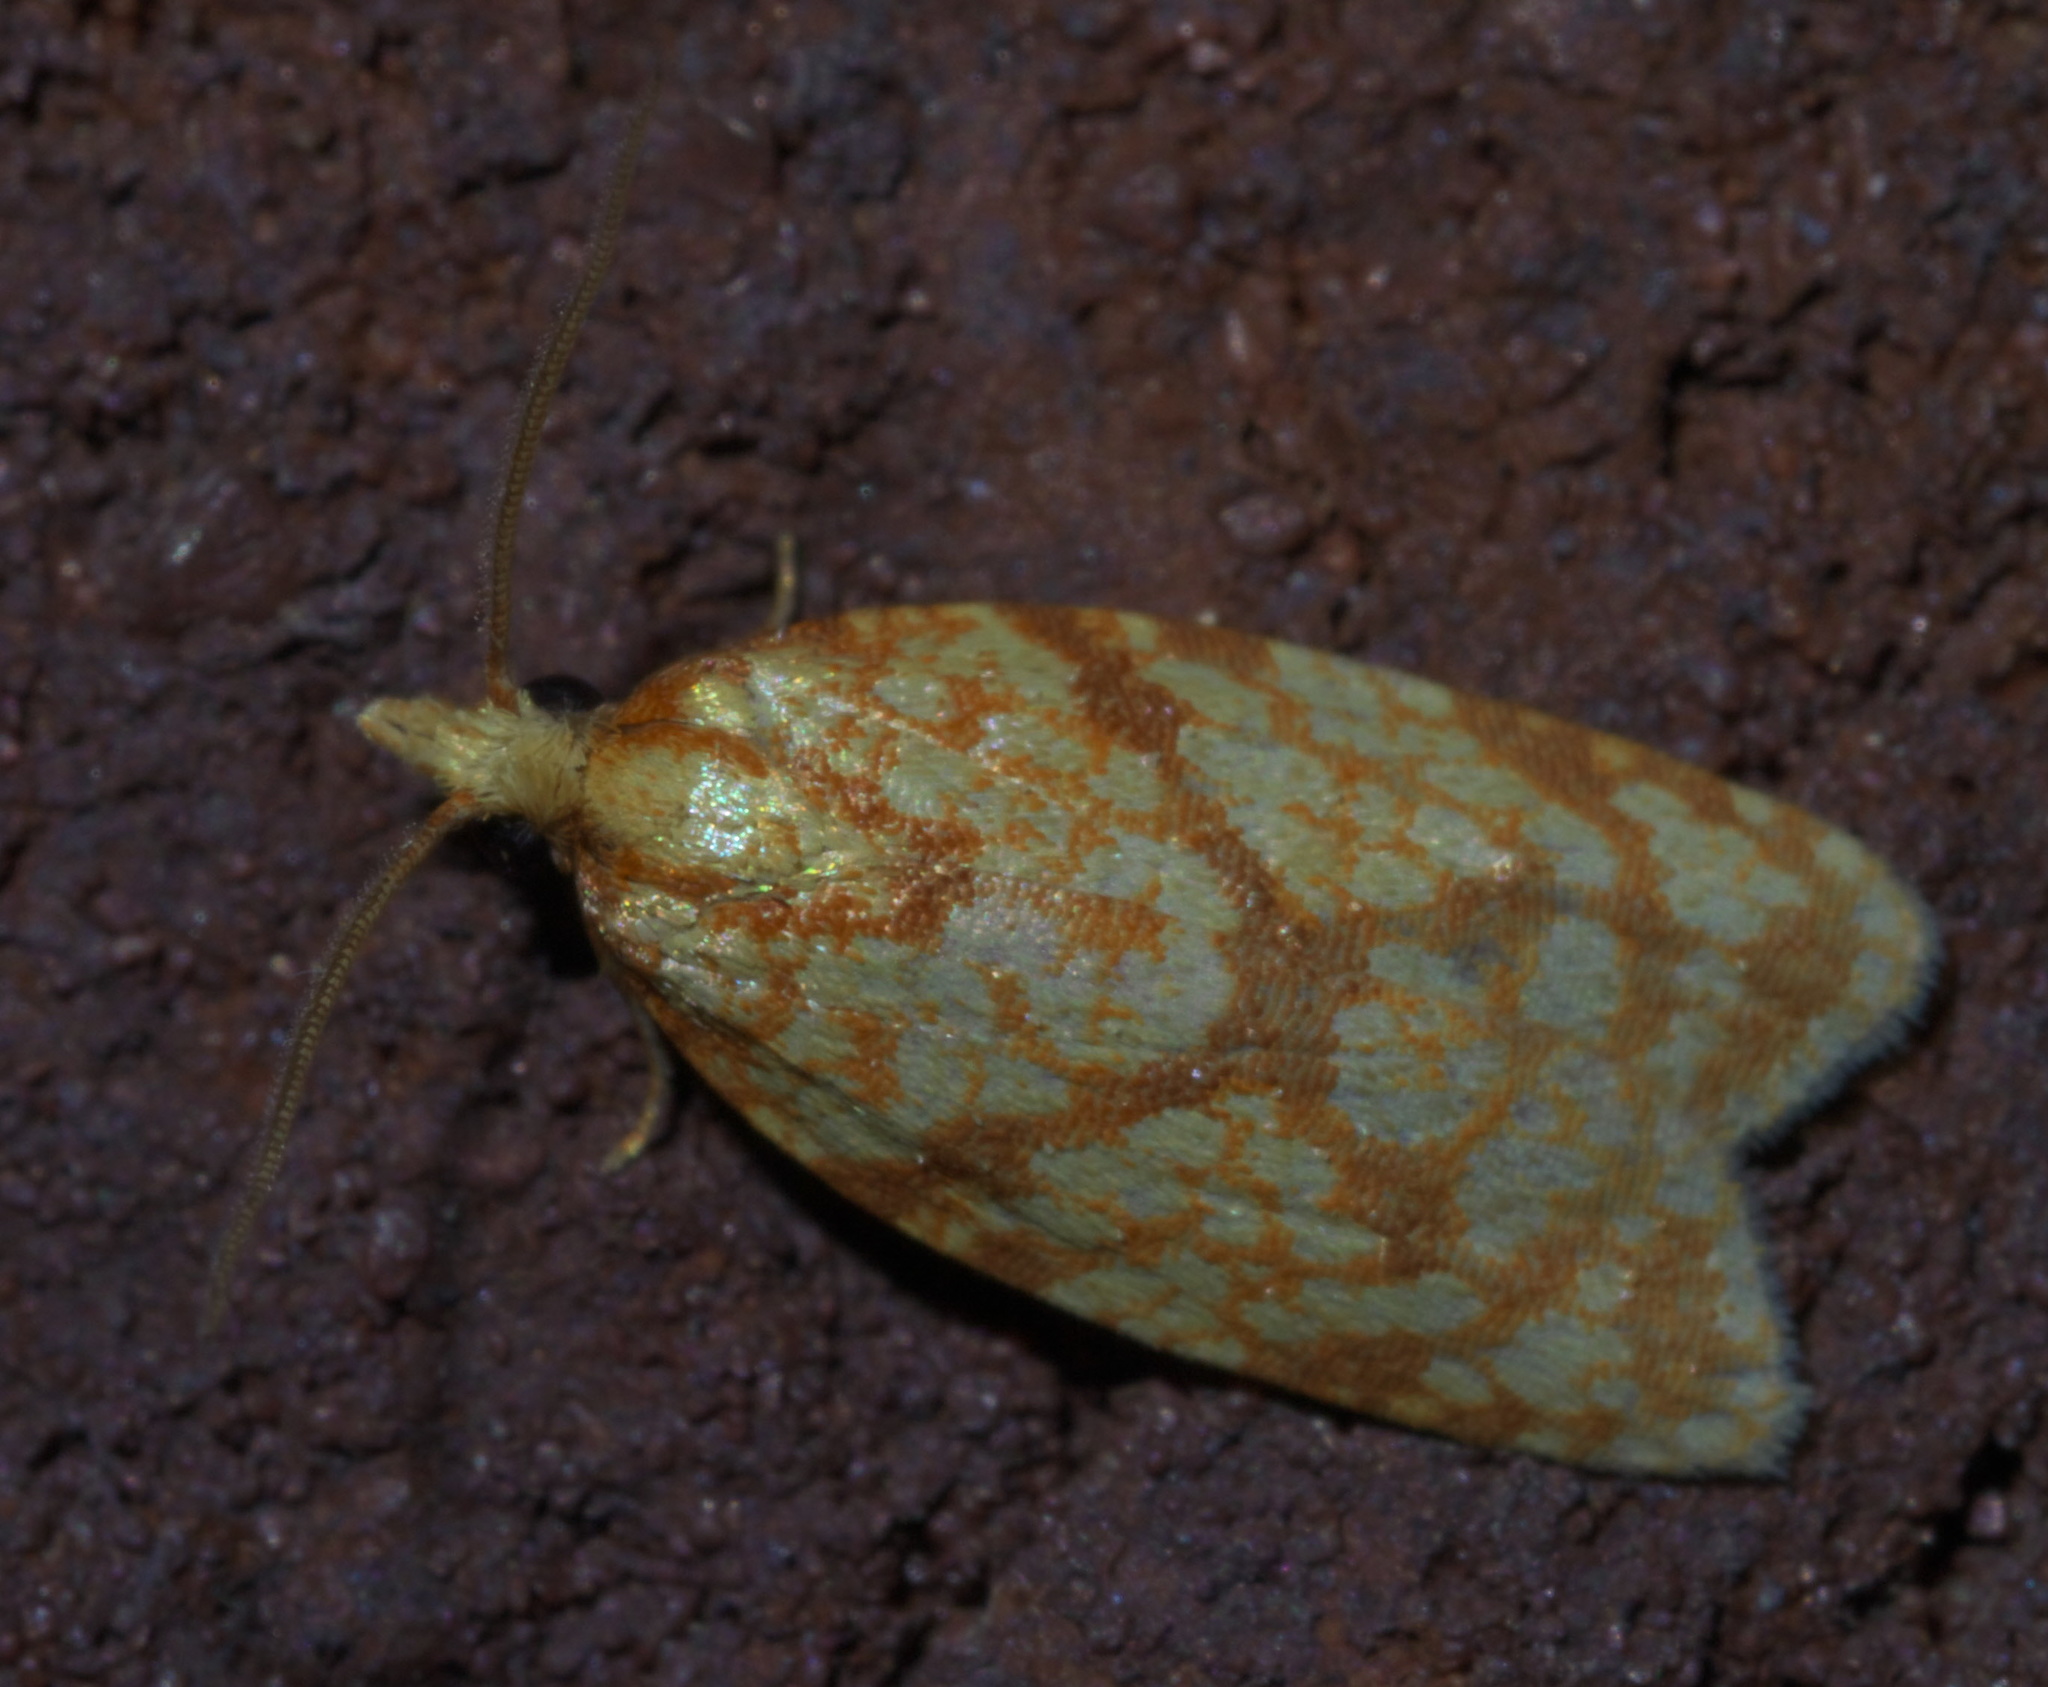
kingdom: Animalia
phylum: Arthropoda
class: Insecta
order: Lepidoptera
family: Tortricidae
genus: Sparganothis
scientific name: Sparganothis sulfureana
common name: Sparganothis fruitworm moth
